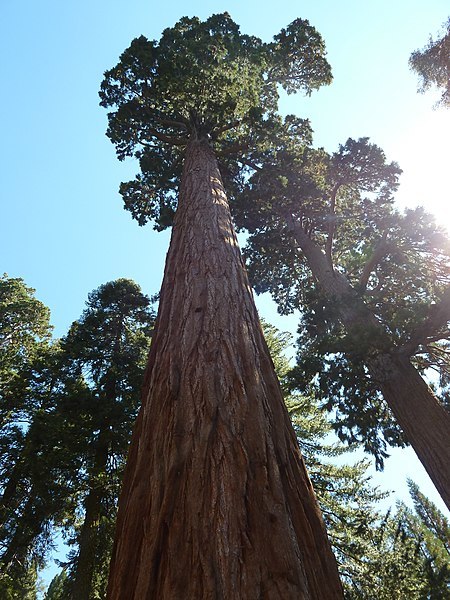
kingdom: Plantae
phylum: Tracheophyta
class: Pinopsida
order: Pinales
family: Cupressaceae
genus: Sequoiadendron
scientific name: Sequoiadendron giganteum
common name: Wellingtonia
